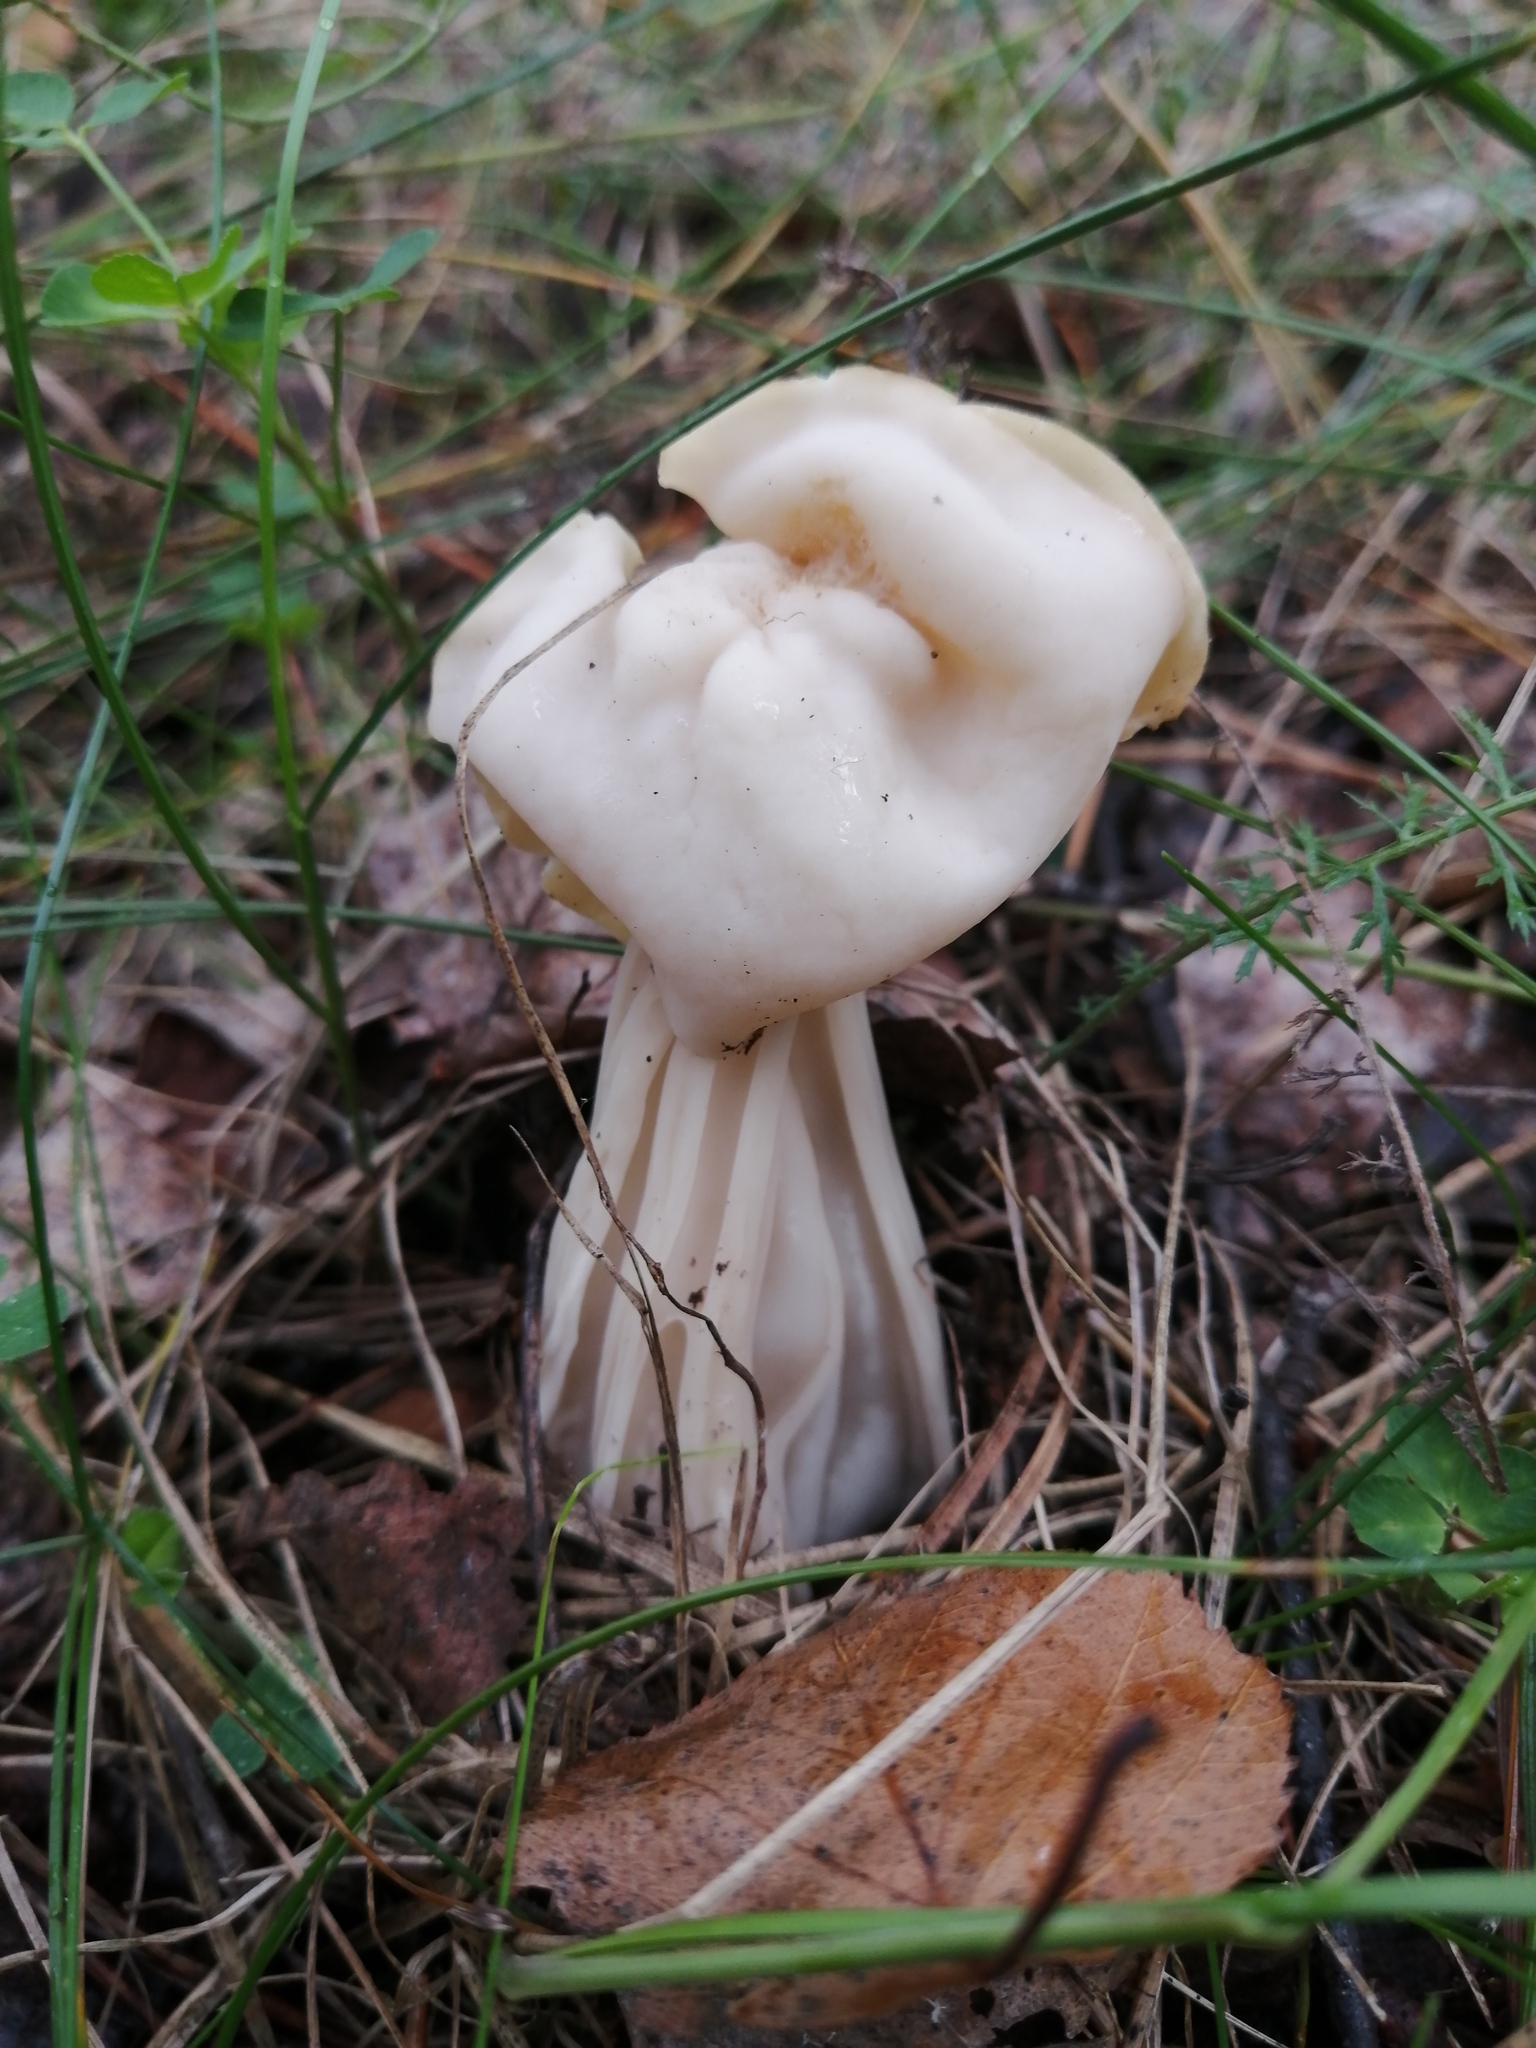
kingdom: Fungi
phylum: Ascomycota
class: Pezizomycetes
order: Pezizales
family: Helvellaceae
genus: Helvella
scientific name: Helvella crispa
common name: White saddle
